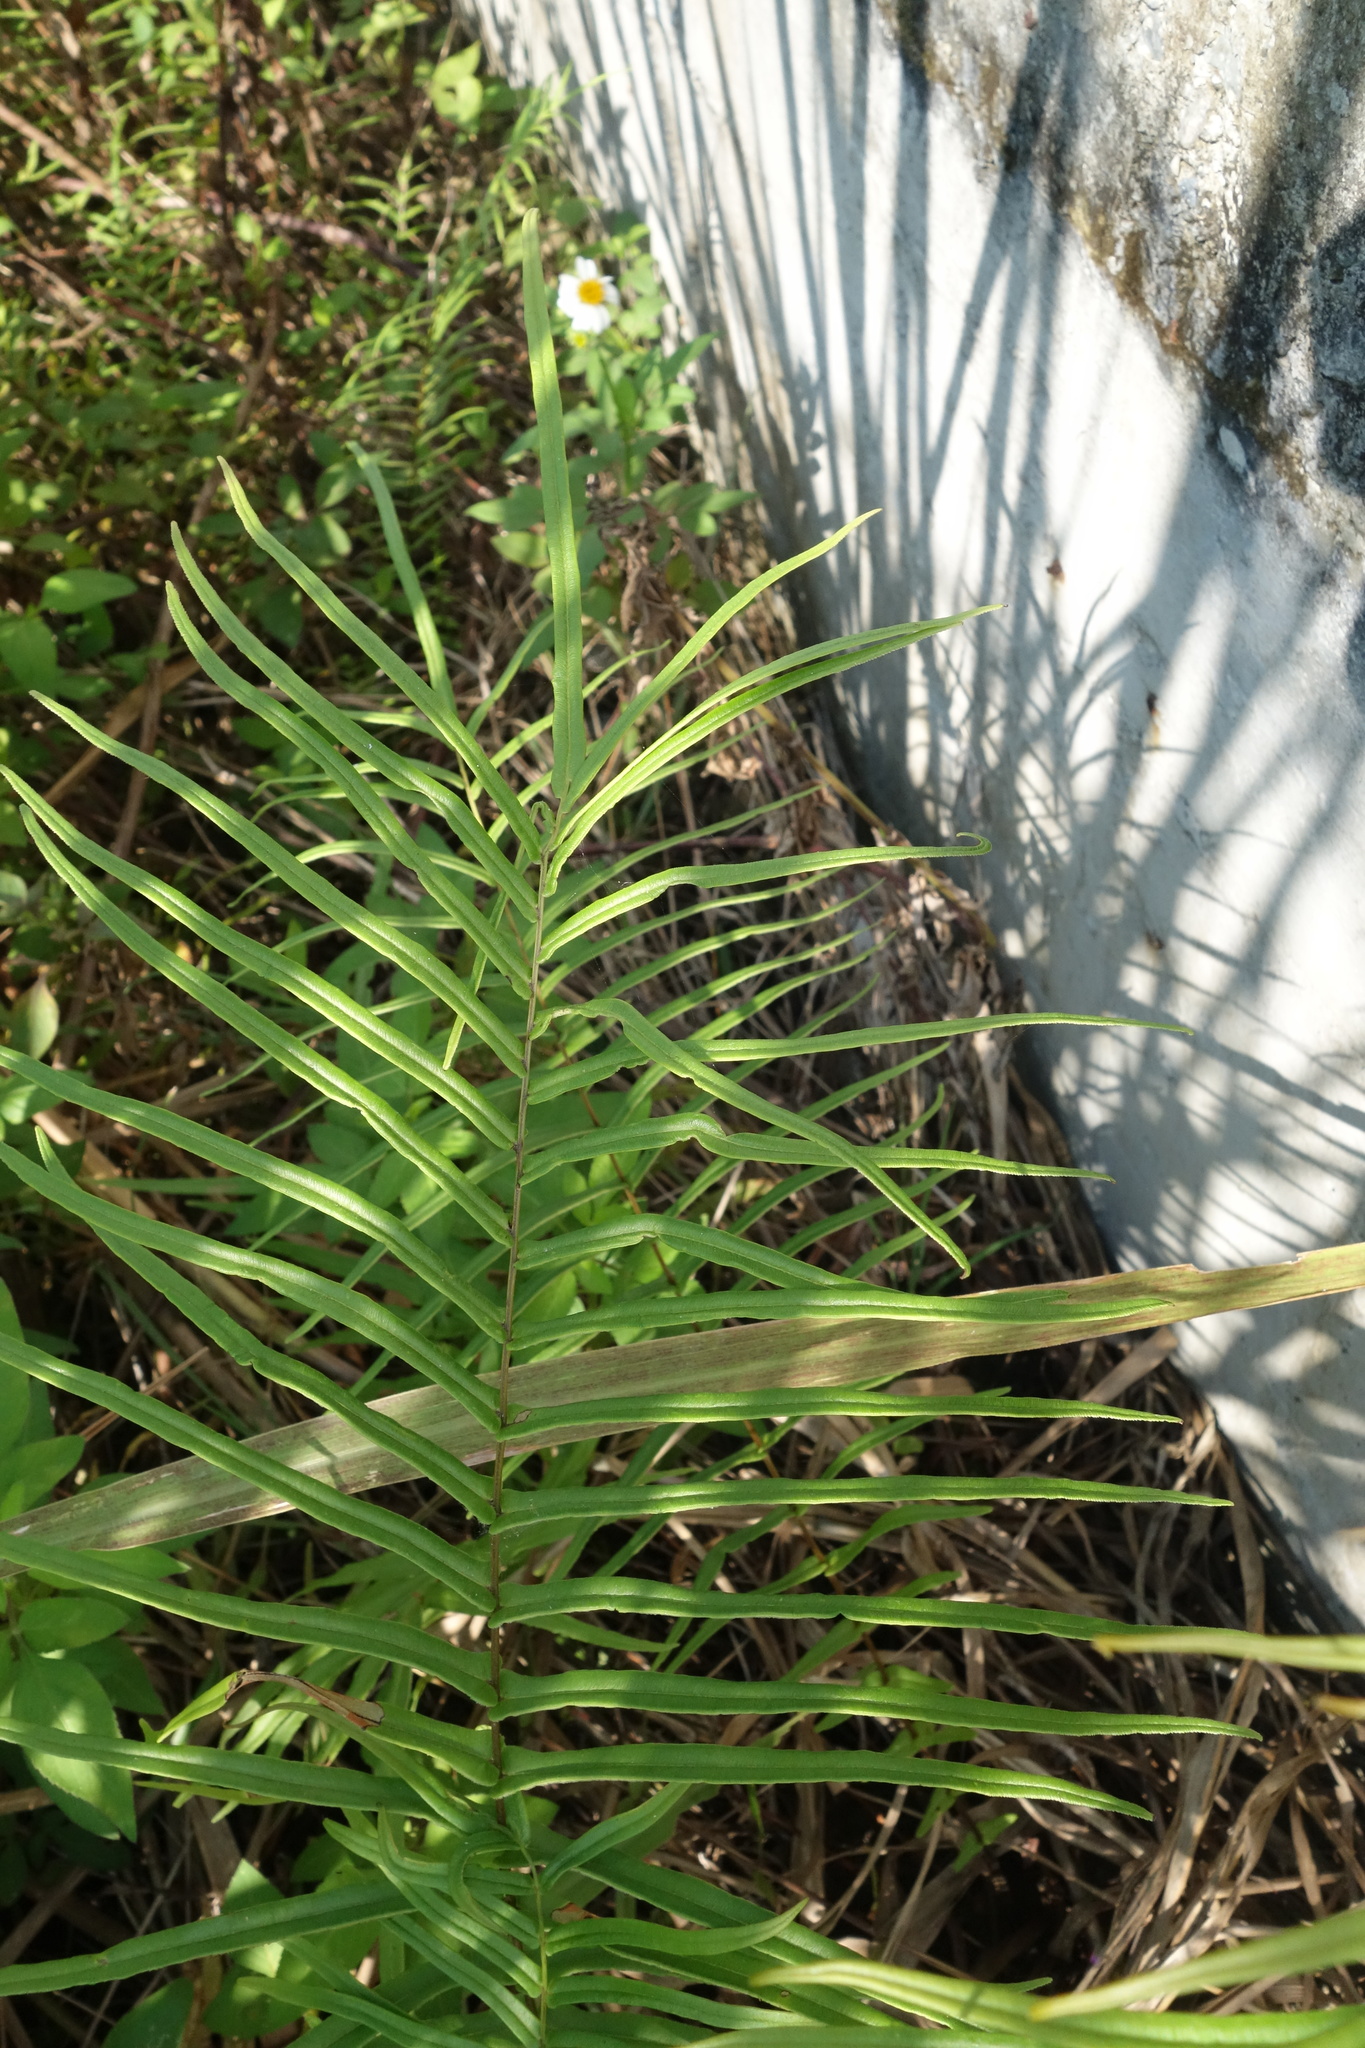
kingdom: Plantae
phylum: Tracheophyta
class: Polypodiopsida
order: Polypodiales
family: Pteridaceae
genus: Pteris
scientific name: Pteris vittata
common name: Ladder brake
